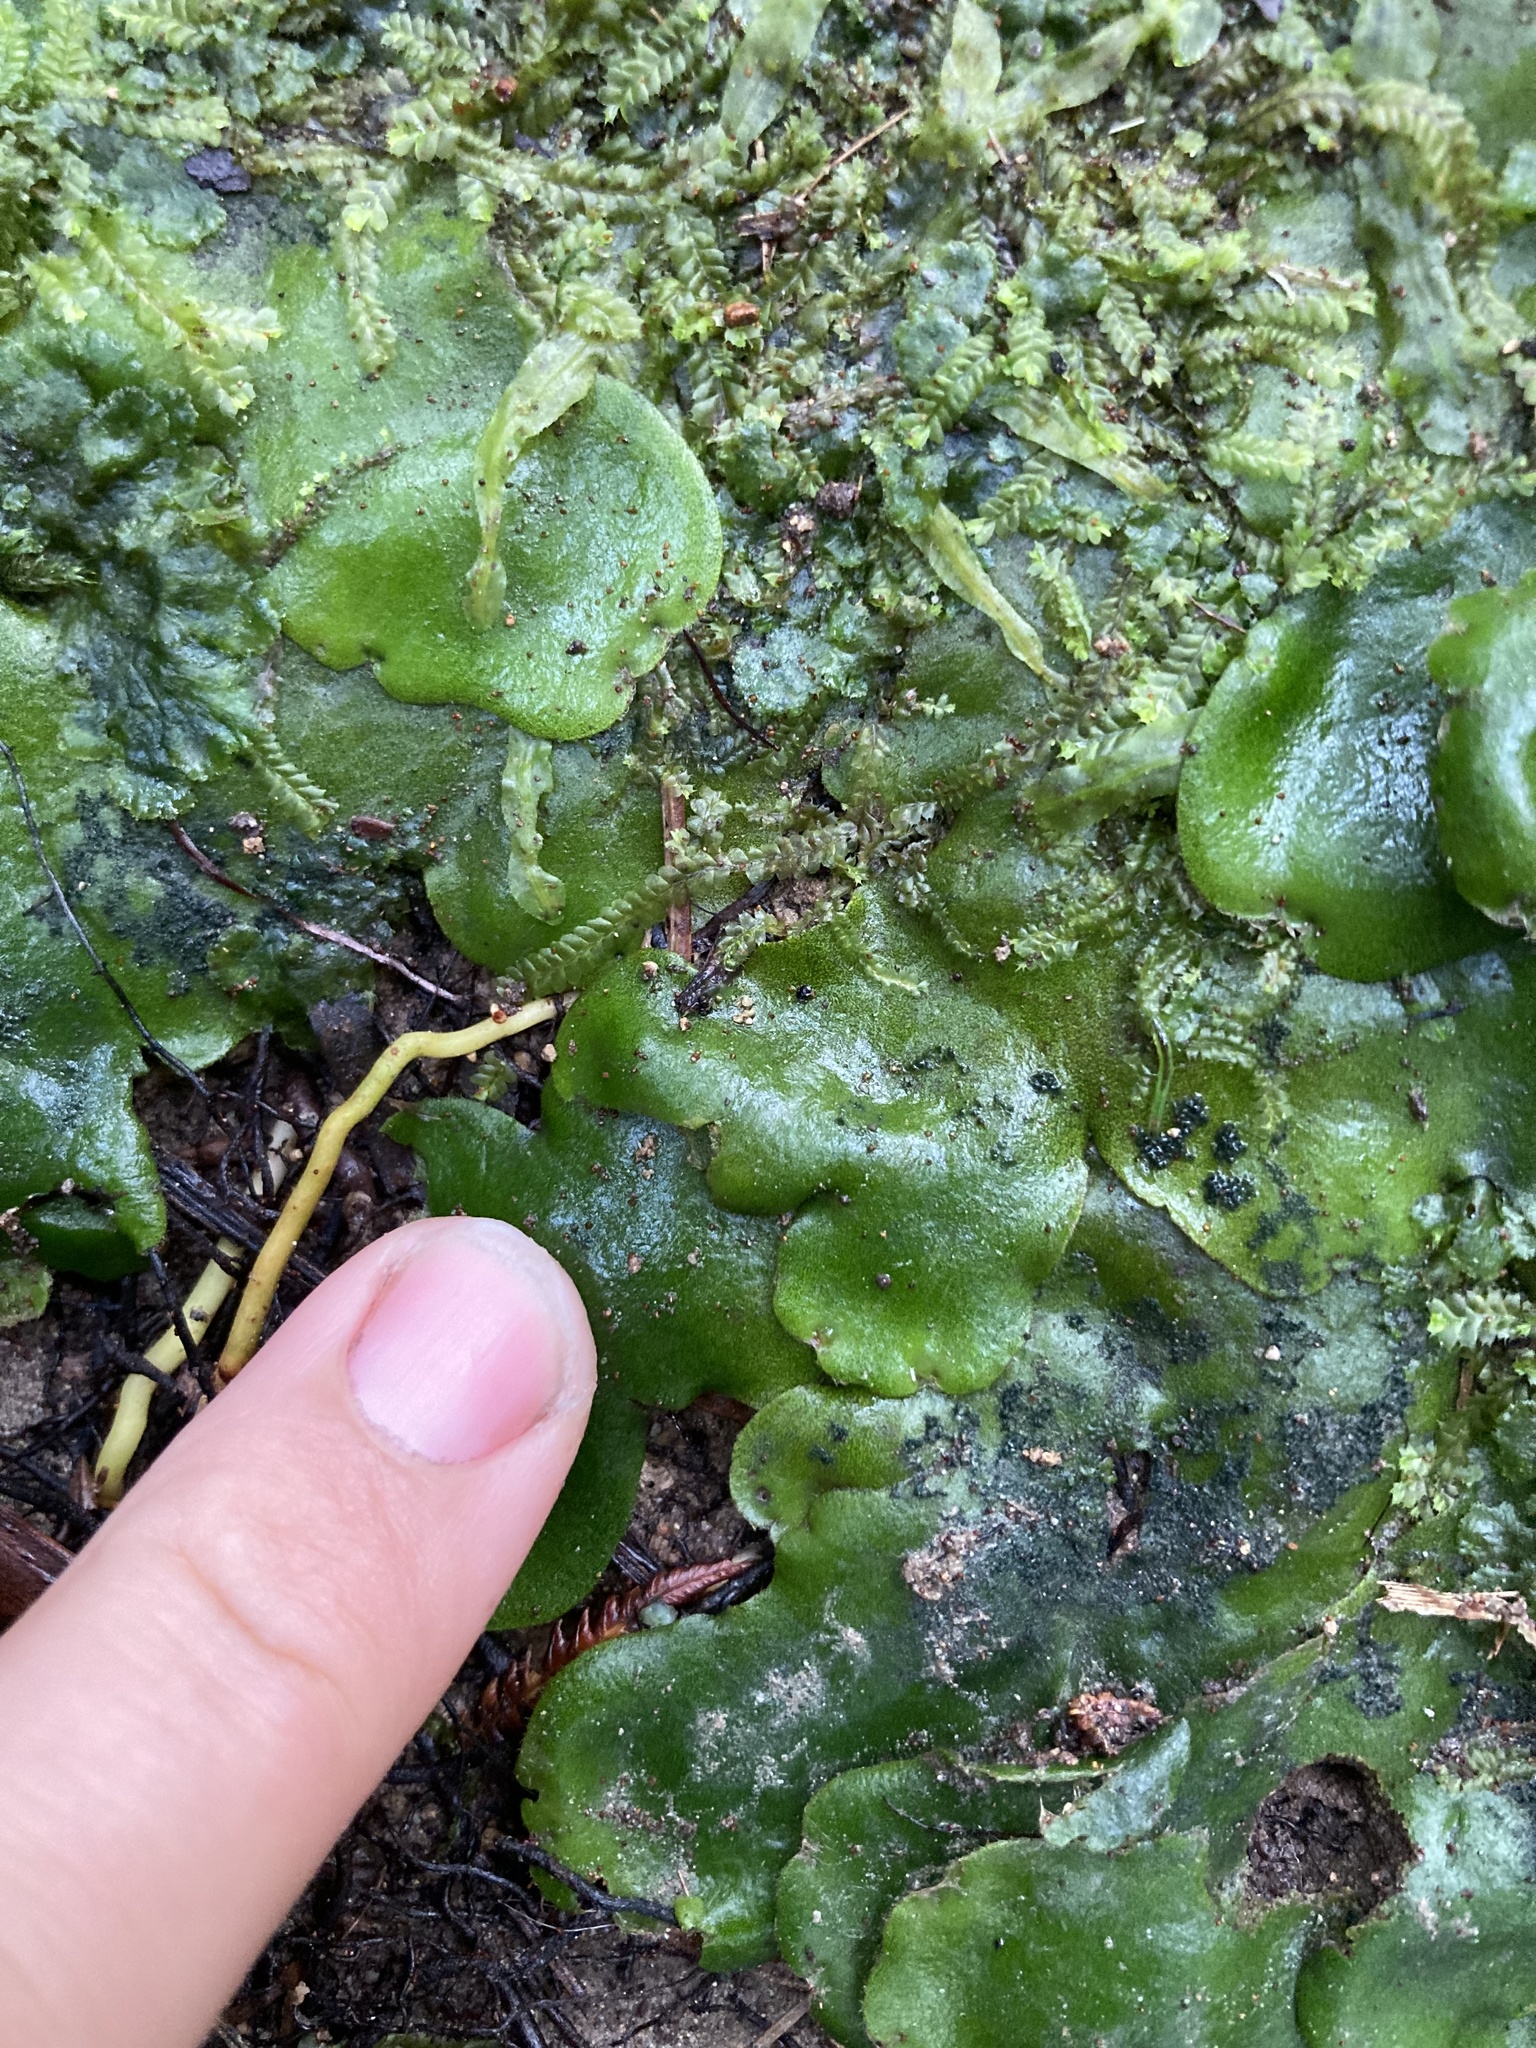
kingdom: Plantae
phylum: Marchantiophyta
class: Marchantiopsida
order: Marchantiales
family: Monocleaceae
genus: Monoclea
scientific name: Monoclea forsteri
